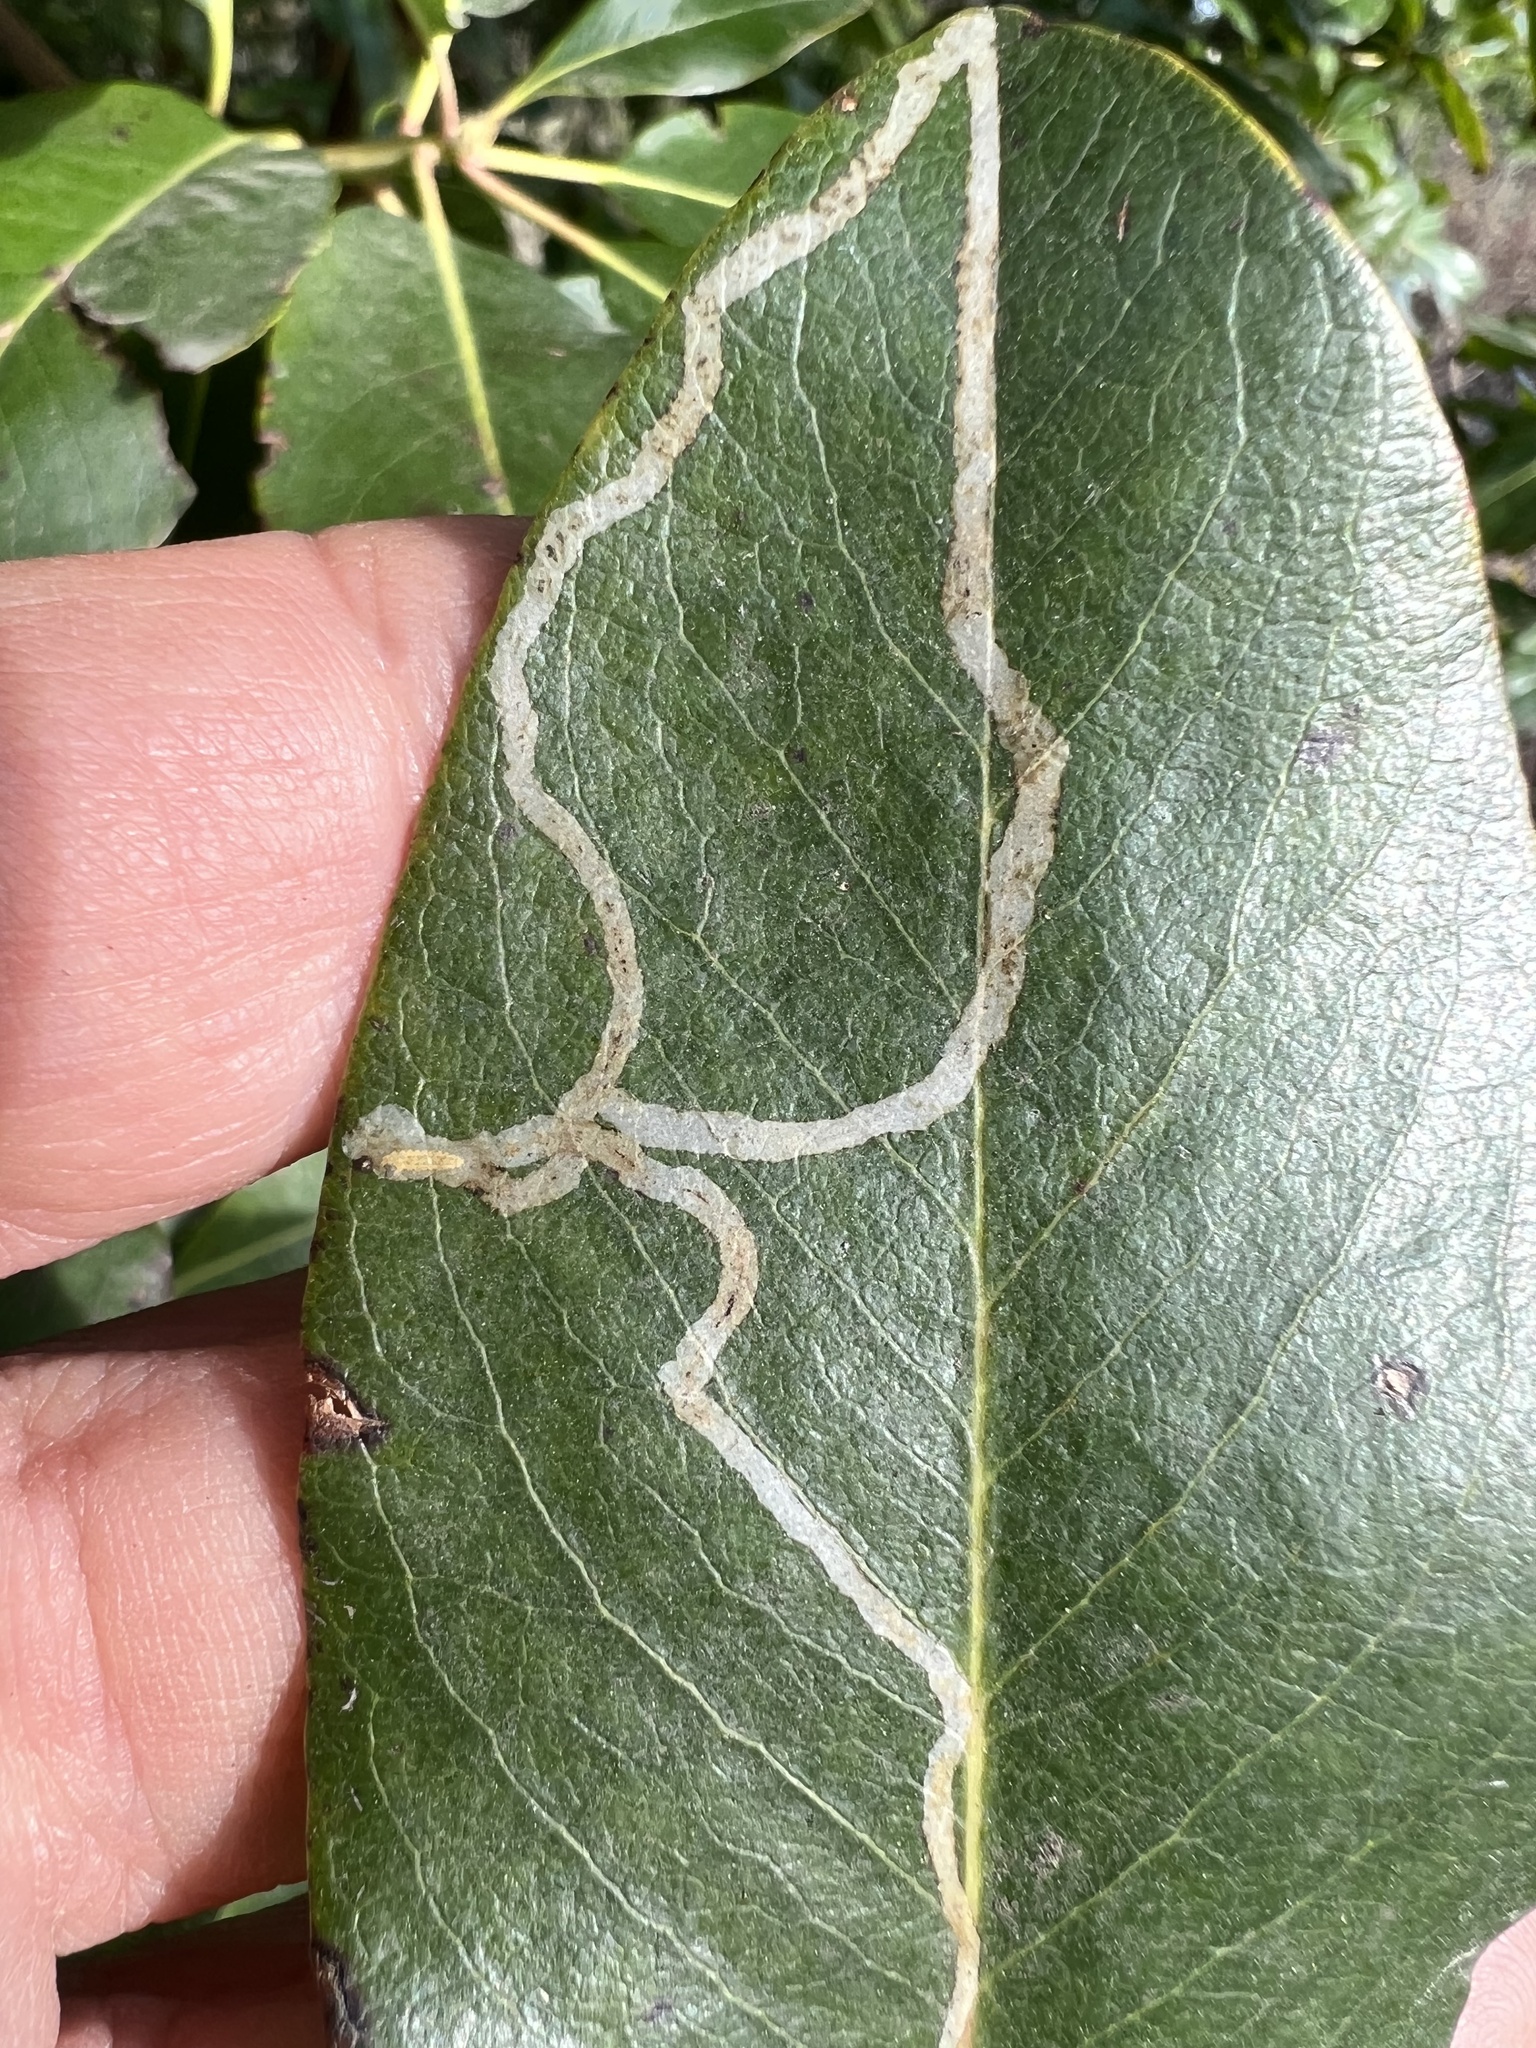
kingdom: Animalia
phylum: Arthropoda
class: Insecta
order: Lepidoptera
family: Gracillariidae
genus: Marmara
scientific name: Marmara arbutiella
